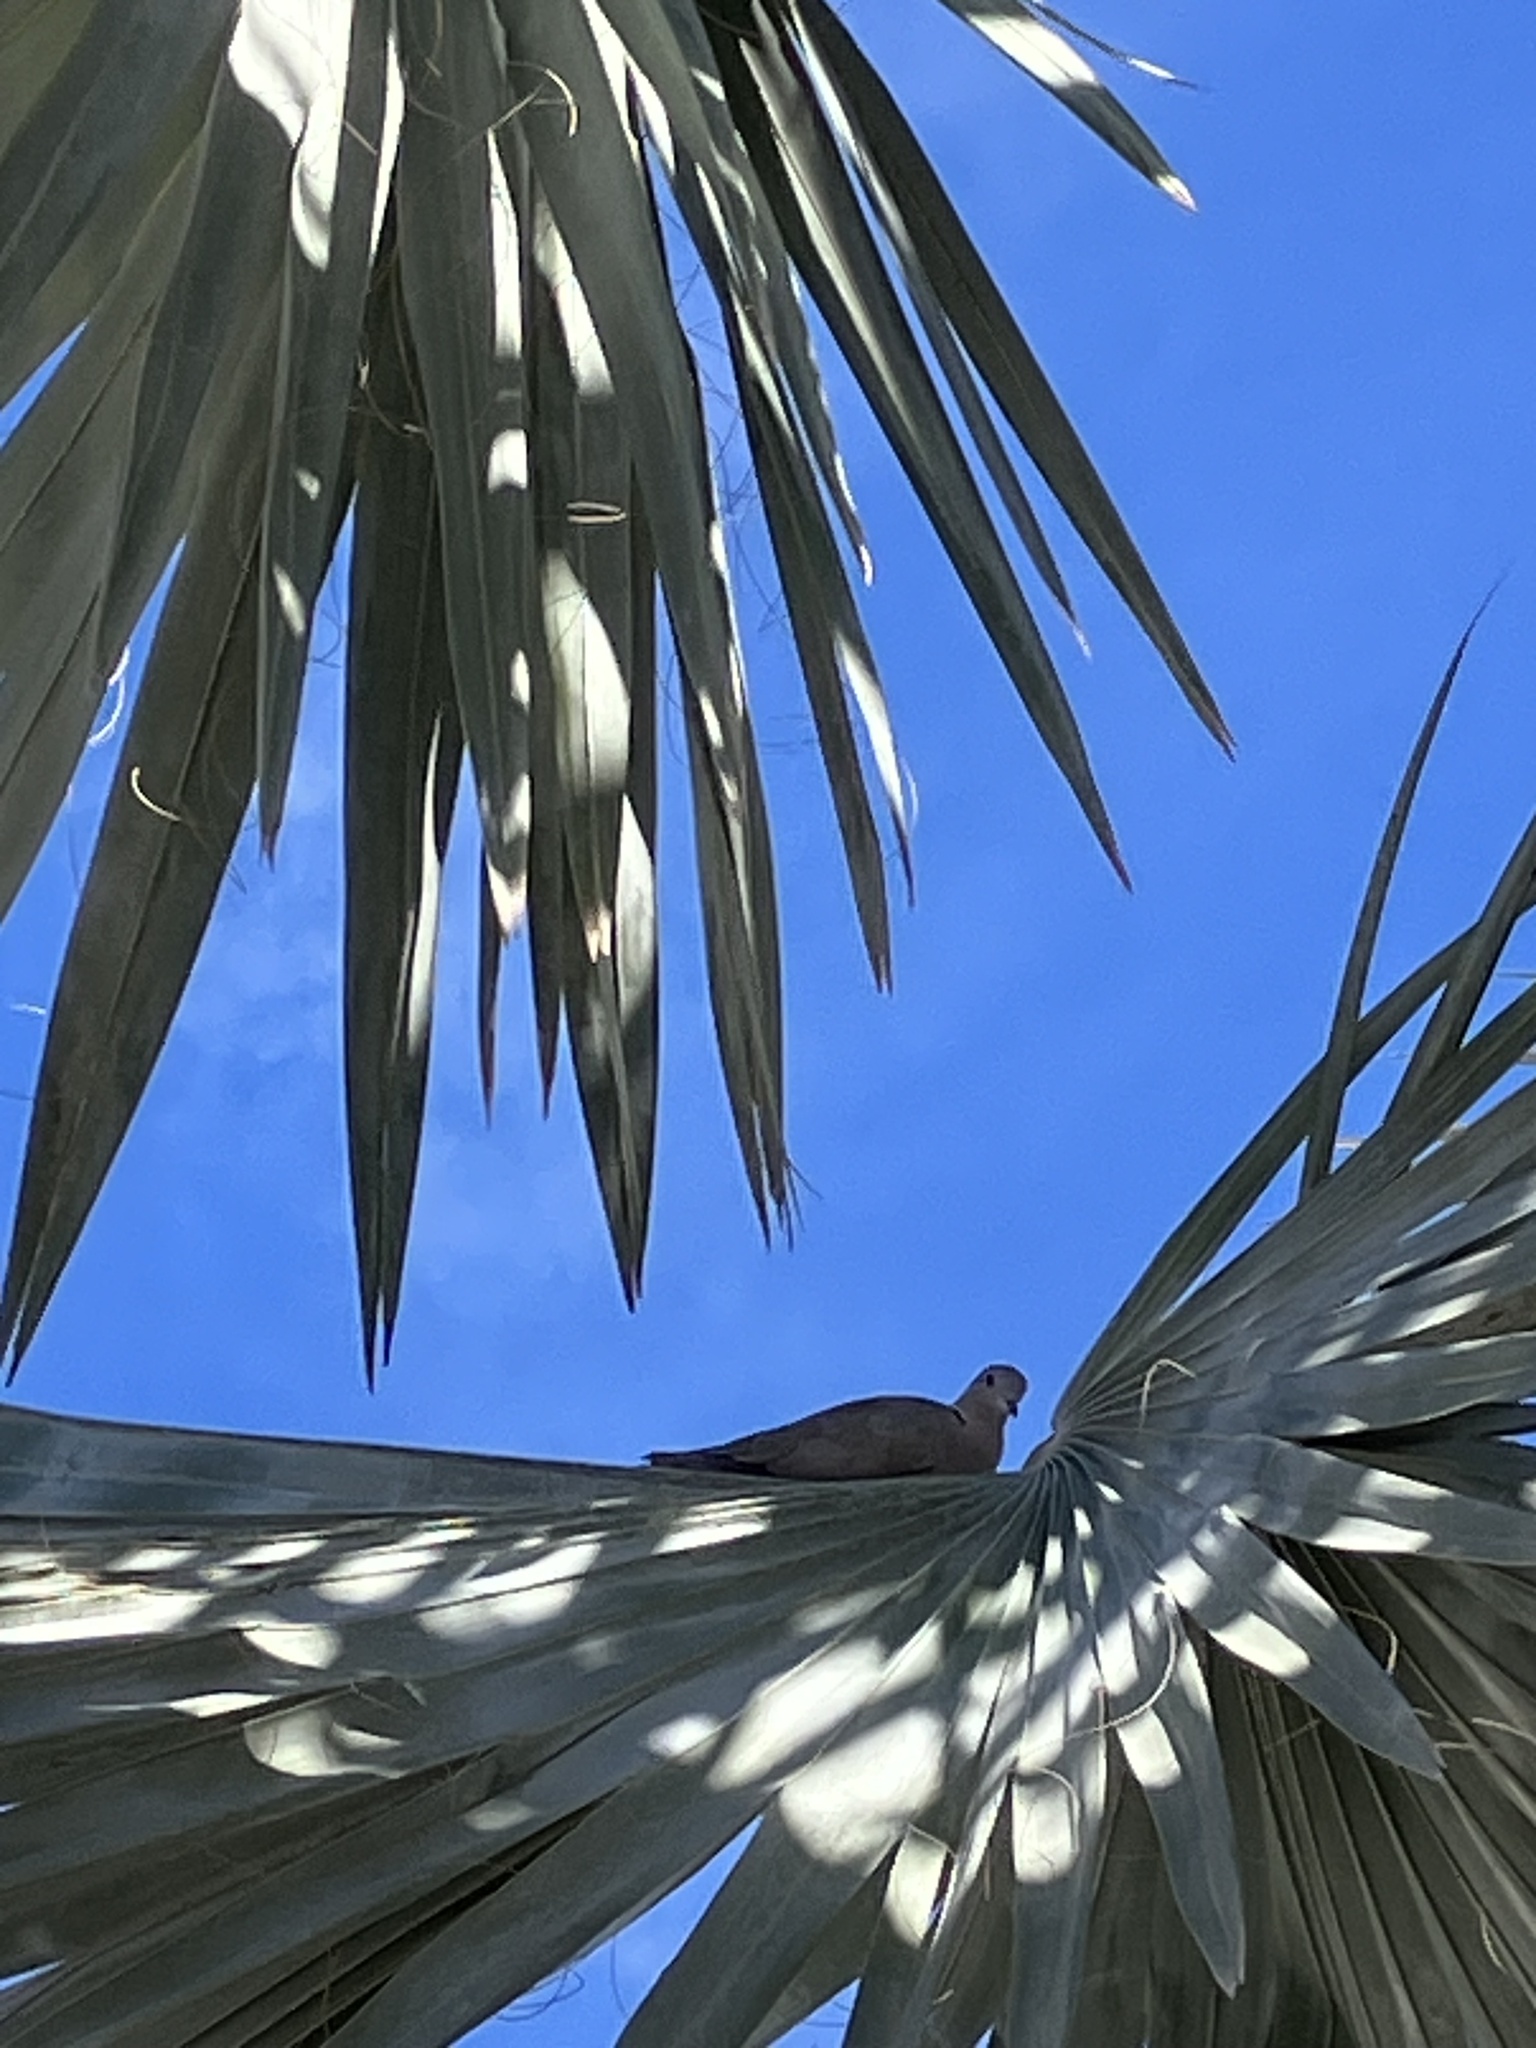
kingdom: Animalia
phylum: Chordata
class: Aves
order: Columbiformes
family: Columbidae
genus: Streptopelia
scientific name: Streptopelia decaocto
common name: Eurasian collared dove
